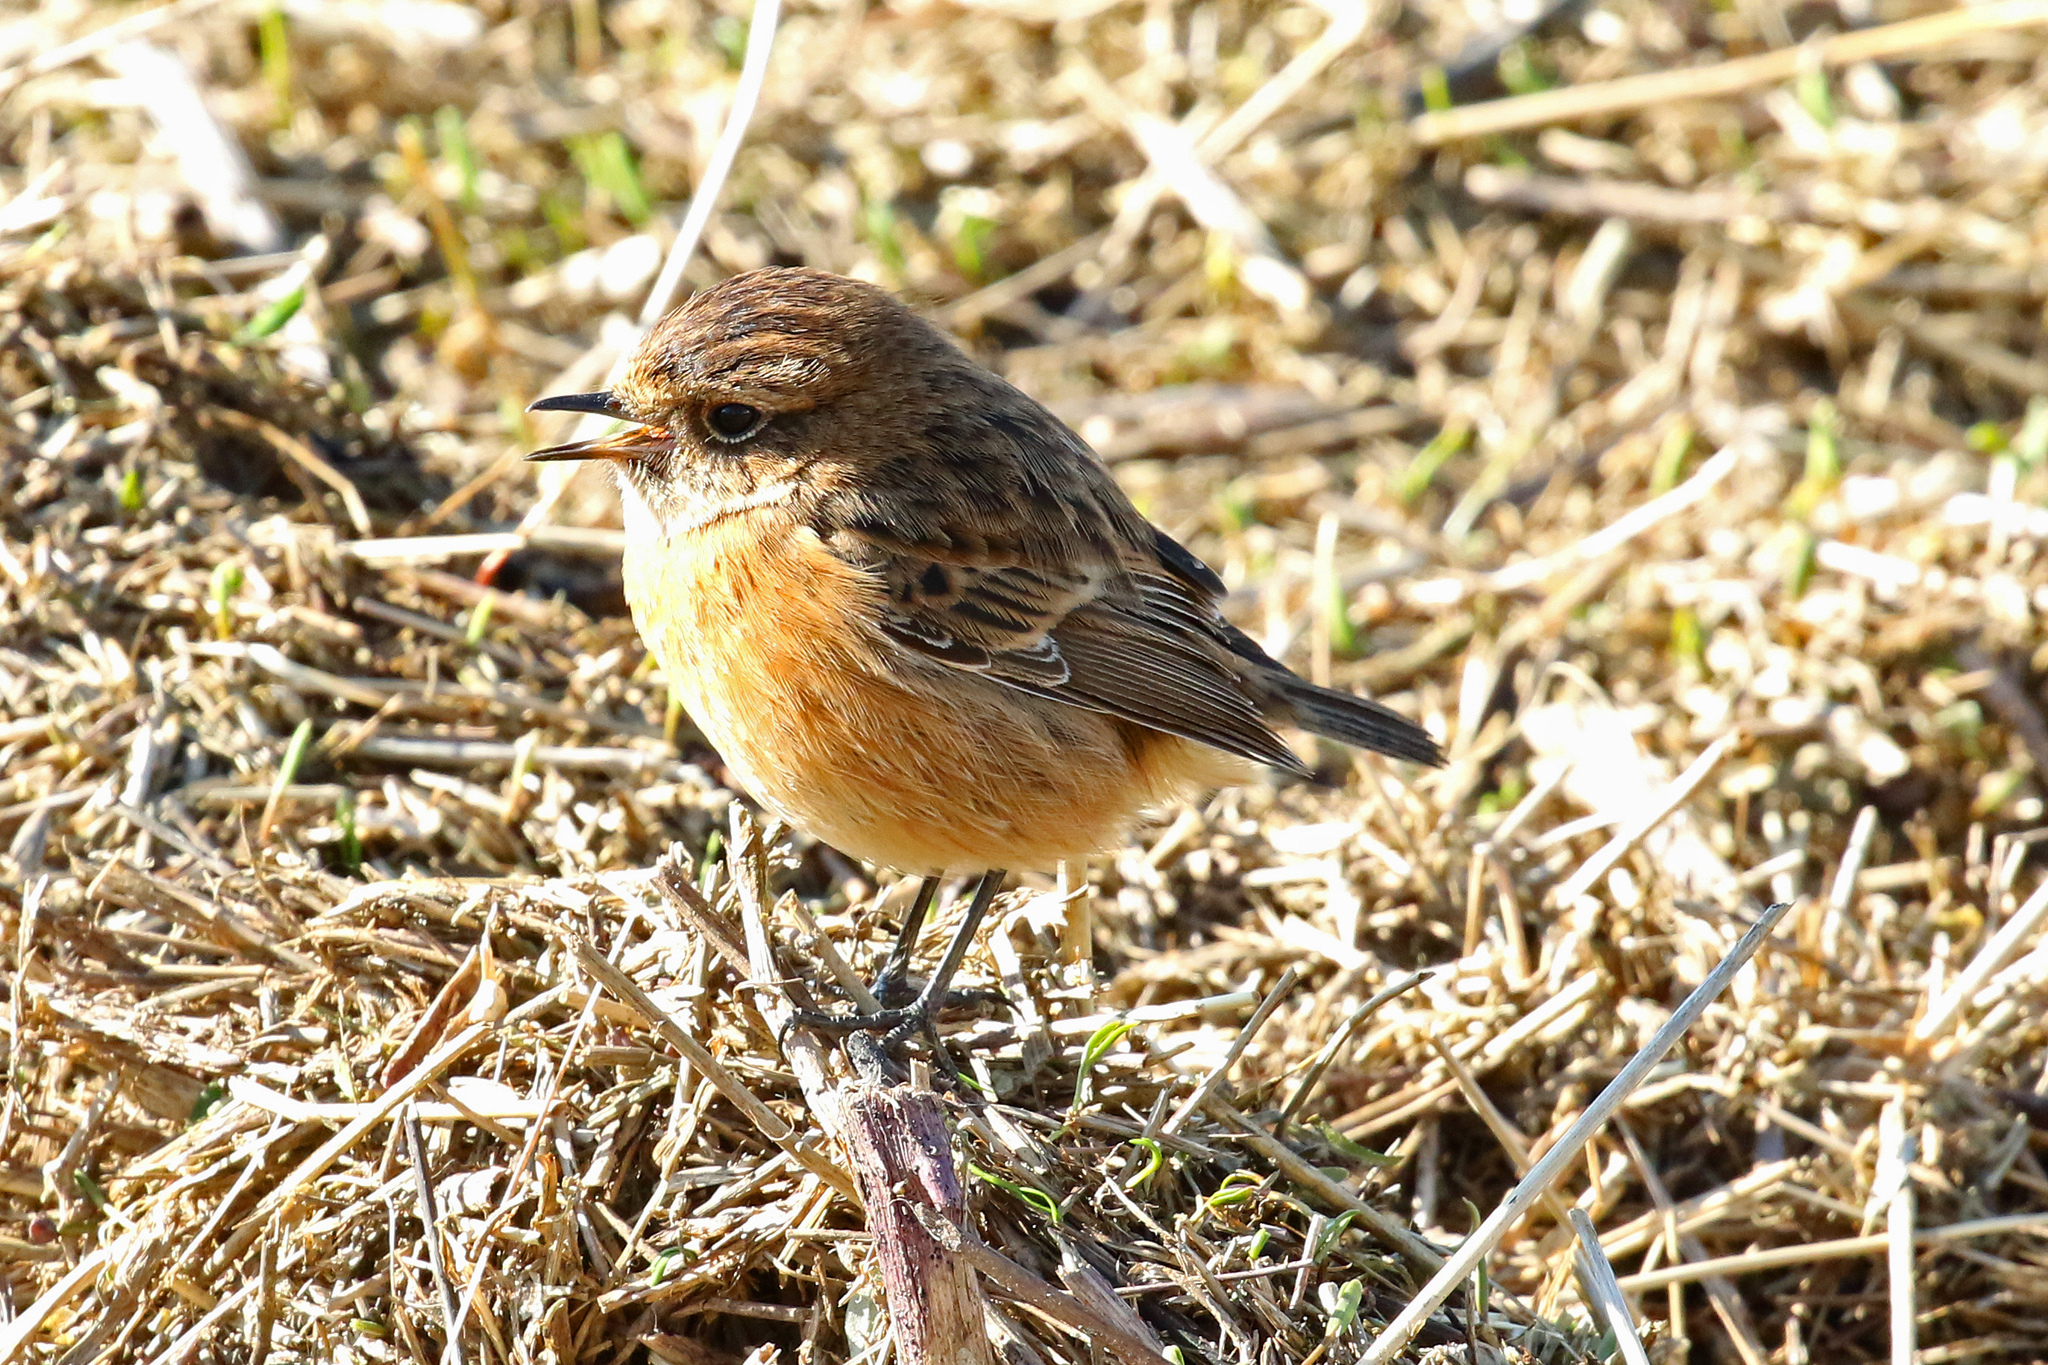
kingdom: Animalia
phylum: Chordata
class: Aves
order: Passeriformes
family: Muscicapidae
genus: Saxicola
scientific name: Saxicola rubicola
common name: European stonechat
